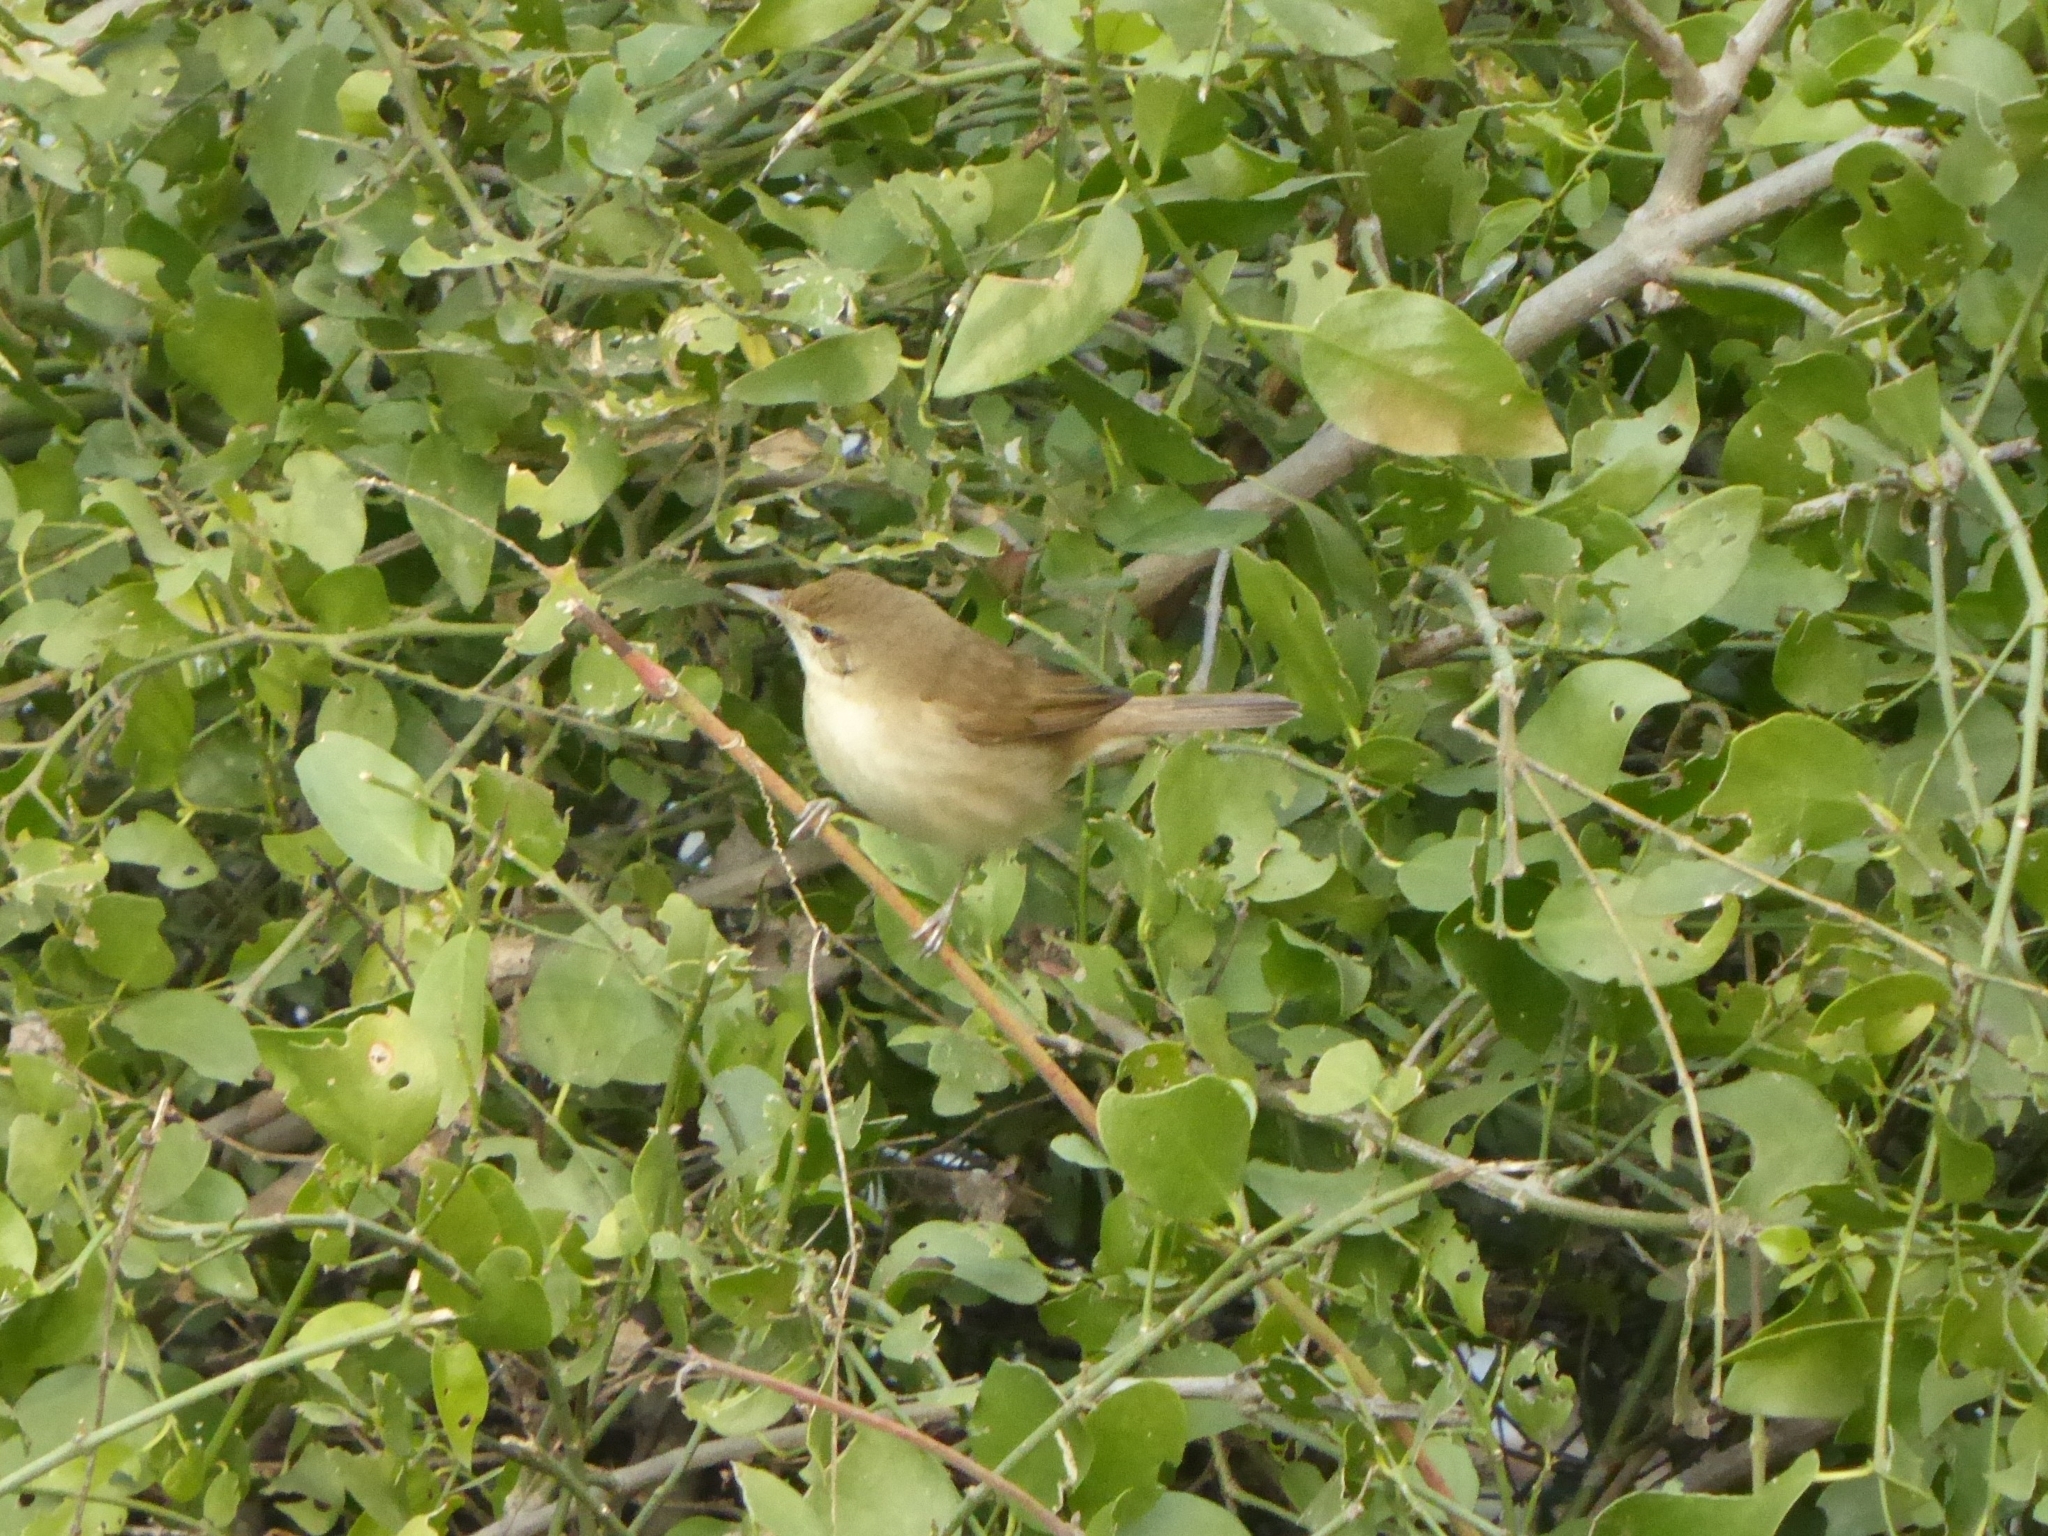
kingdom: Animalia
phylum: Chordata
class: Aves
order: Passeriformes
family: Acrocephalidae
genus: Acrocephalus
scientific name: Acrocephalus dumetorum
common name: Blyth's reed warbler
